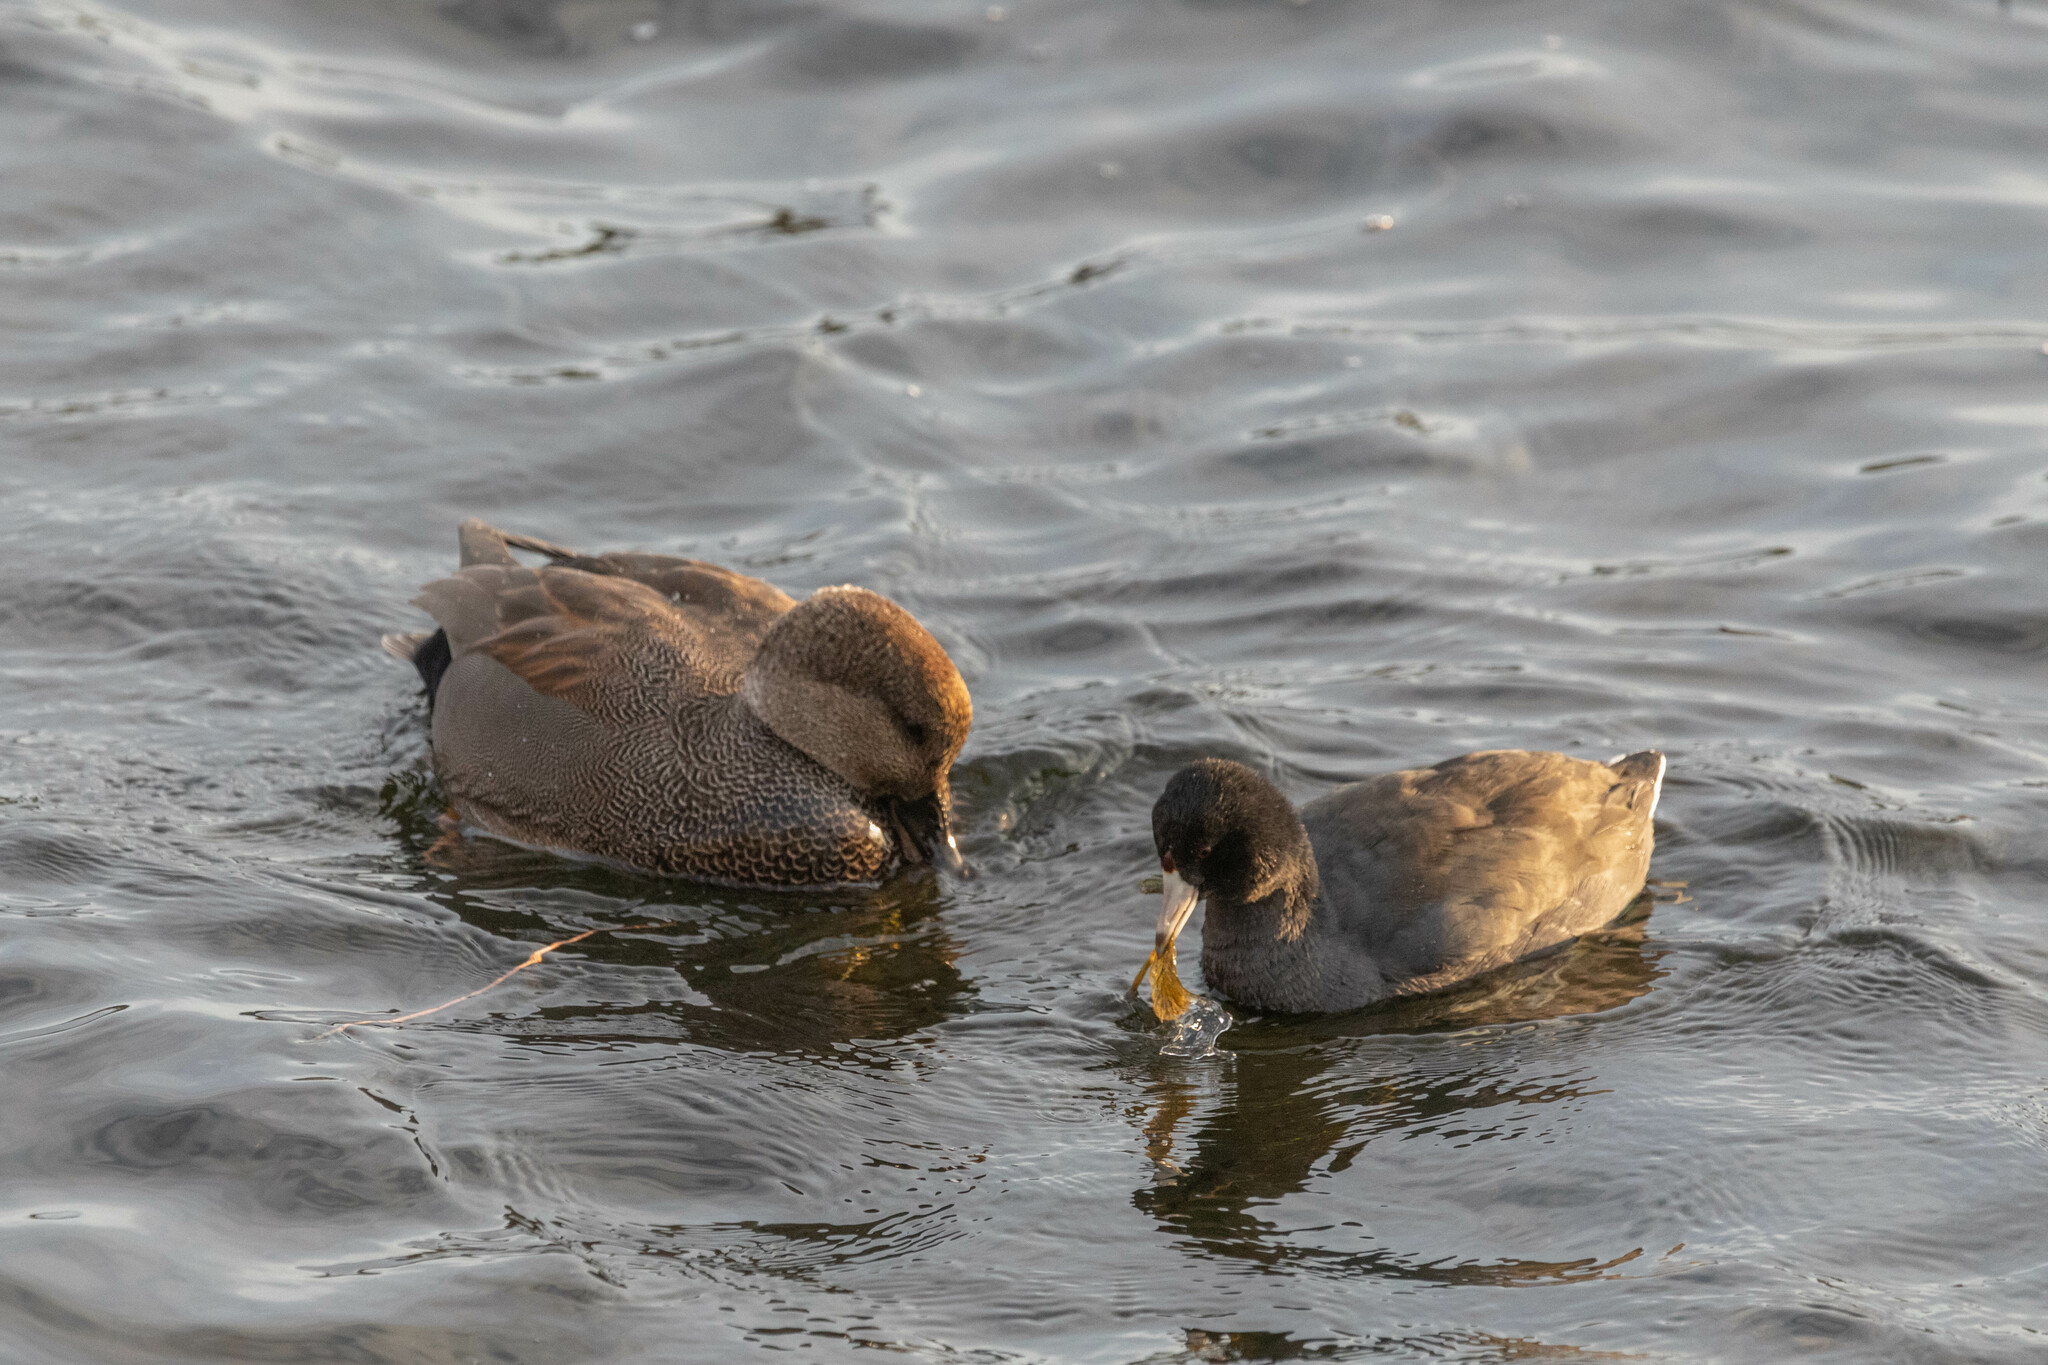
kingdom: Animalia
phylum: Chordata
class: Aves
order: Gruiformes
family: Rallidae
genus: Fulica
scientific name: Fulica americana
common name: American coot
